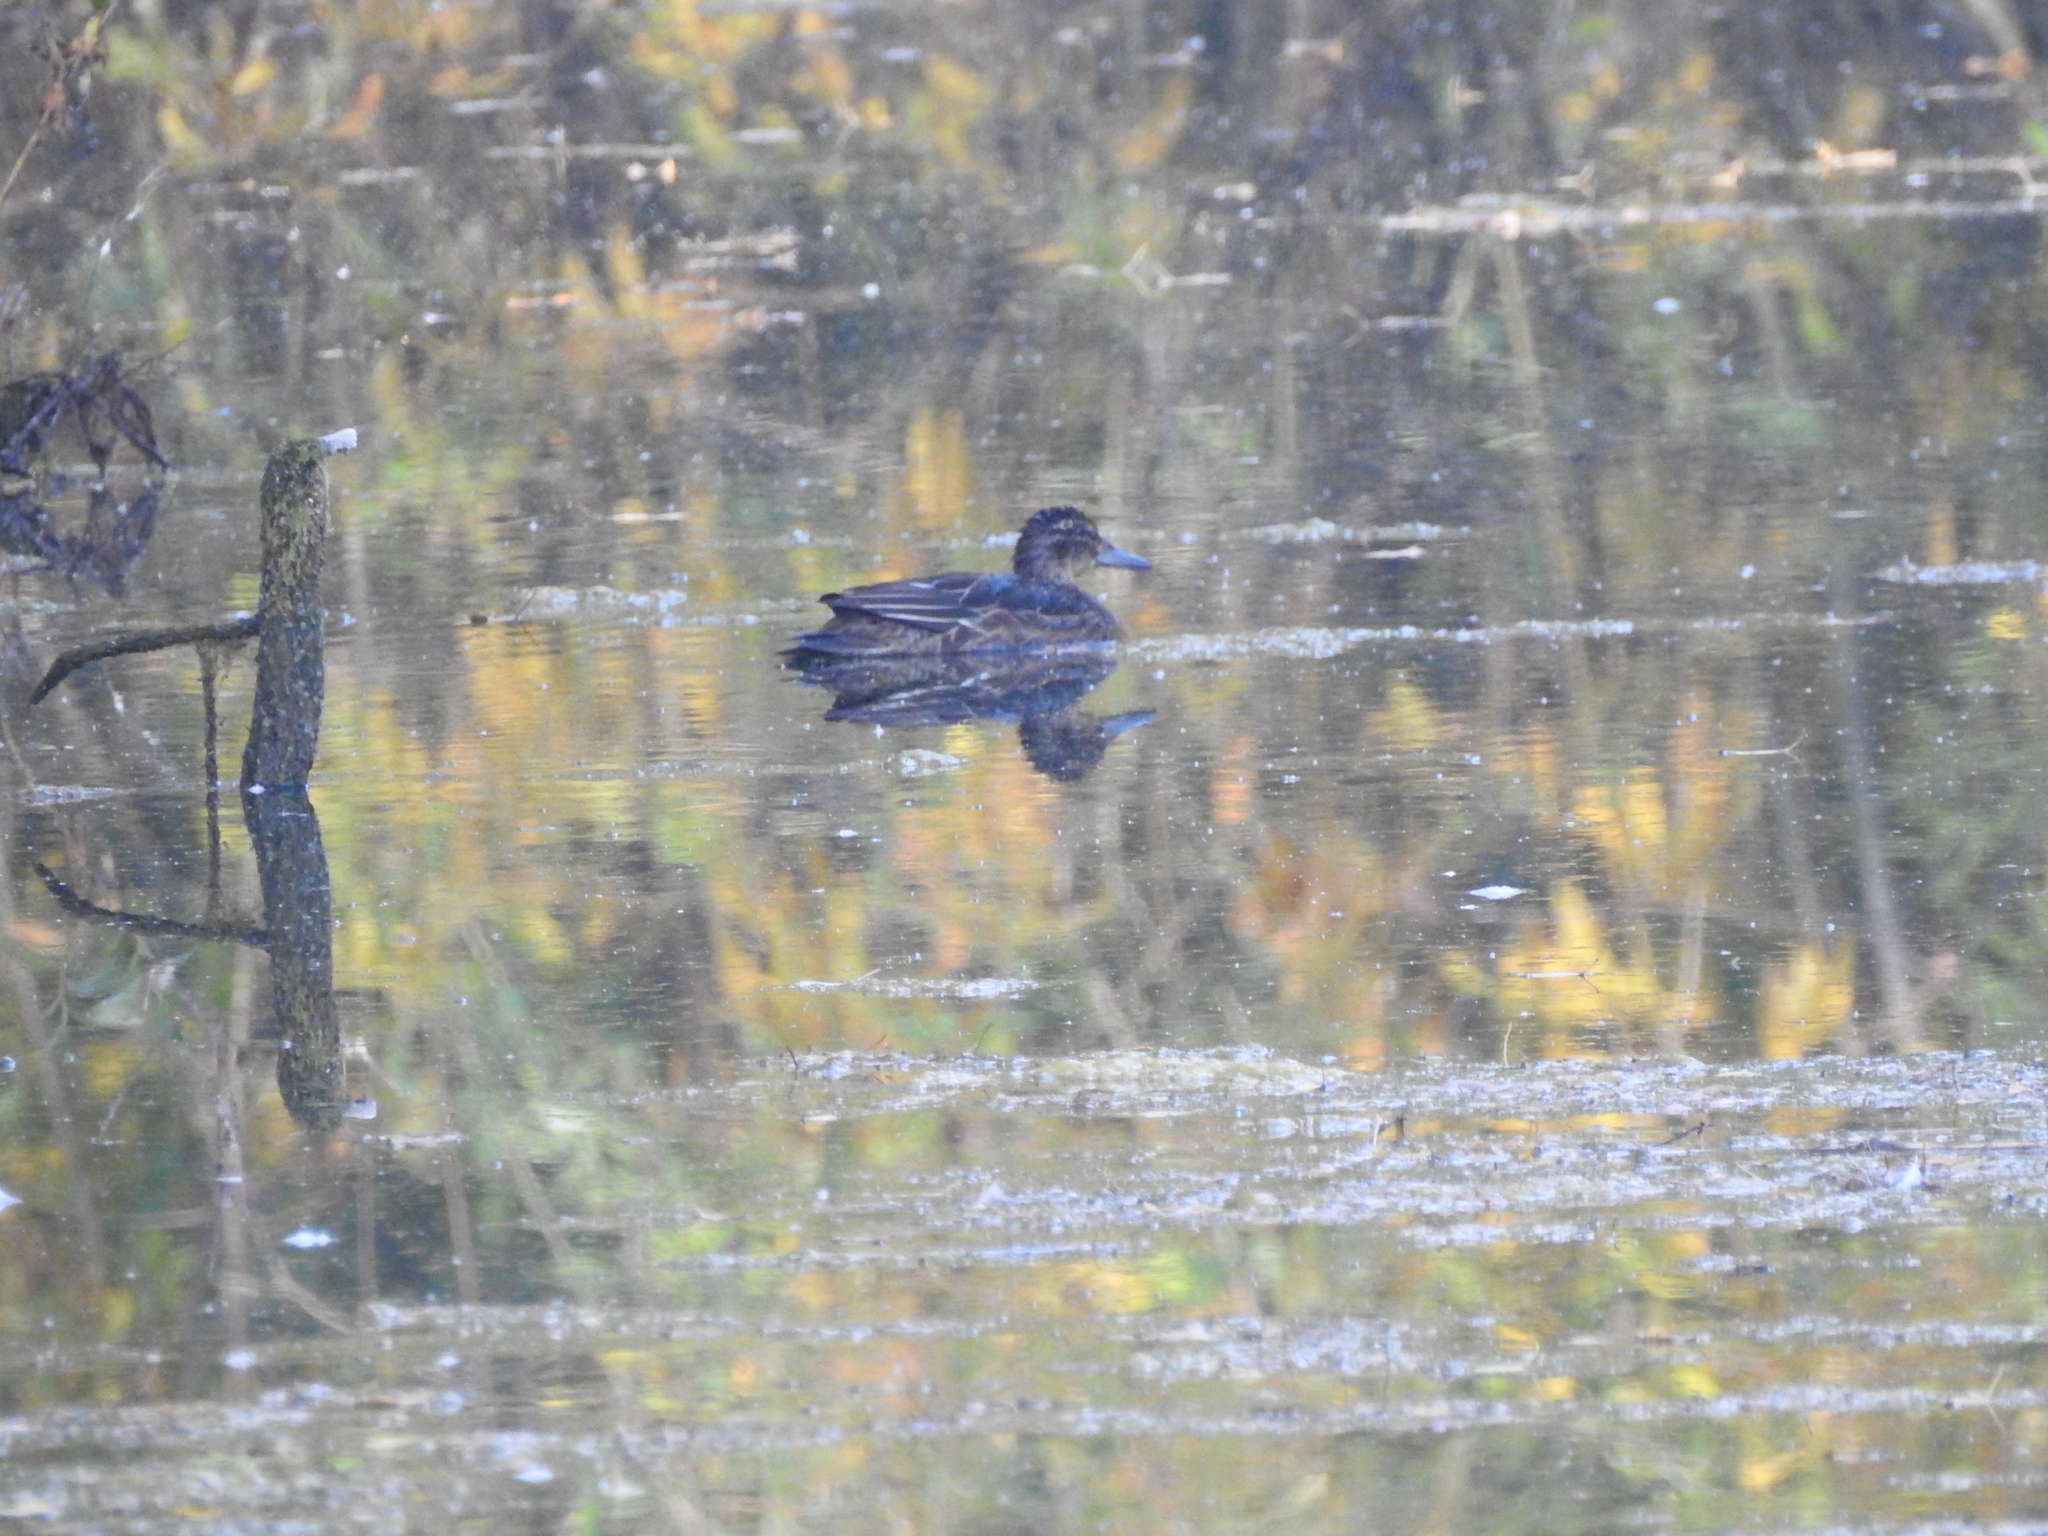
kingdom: Animalia
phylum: Chordata
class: Aves
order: Anseriformes
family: Anatidae
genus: Spatula
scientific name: Spatula querquedula
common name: Garganey
